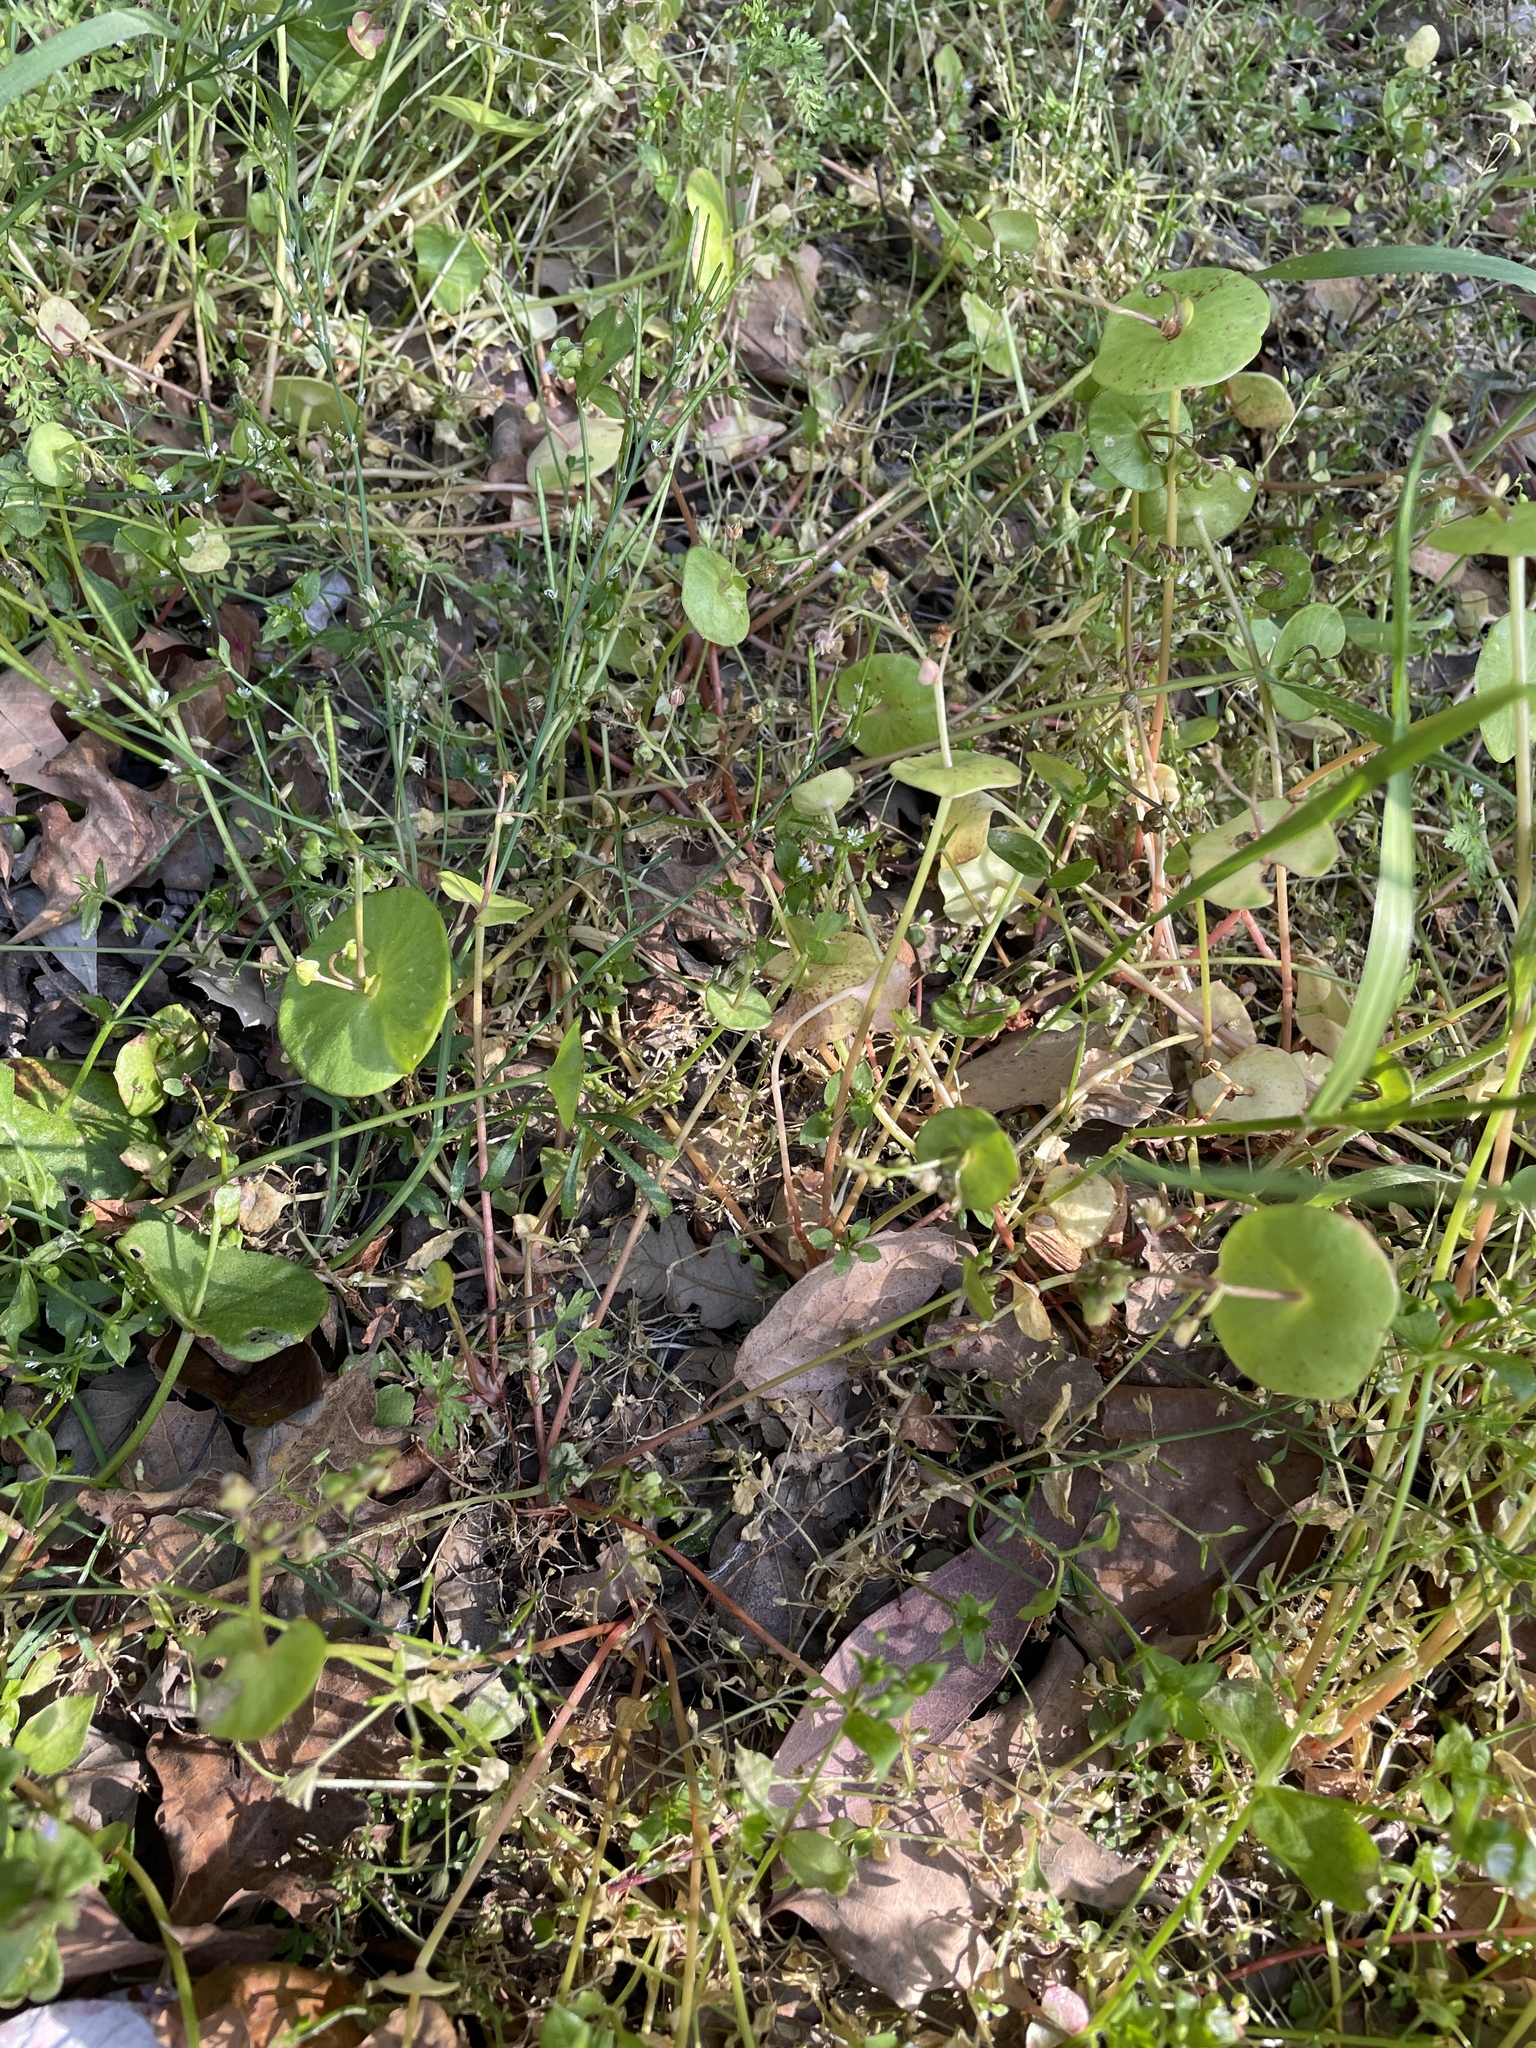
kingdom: Plantae
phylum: Tracheophyta
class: Magnoliopsida
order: Caryophyllales
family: Montiaceae
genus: Claytonia
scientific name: Claytonia perfoliata
